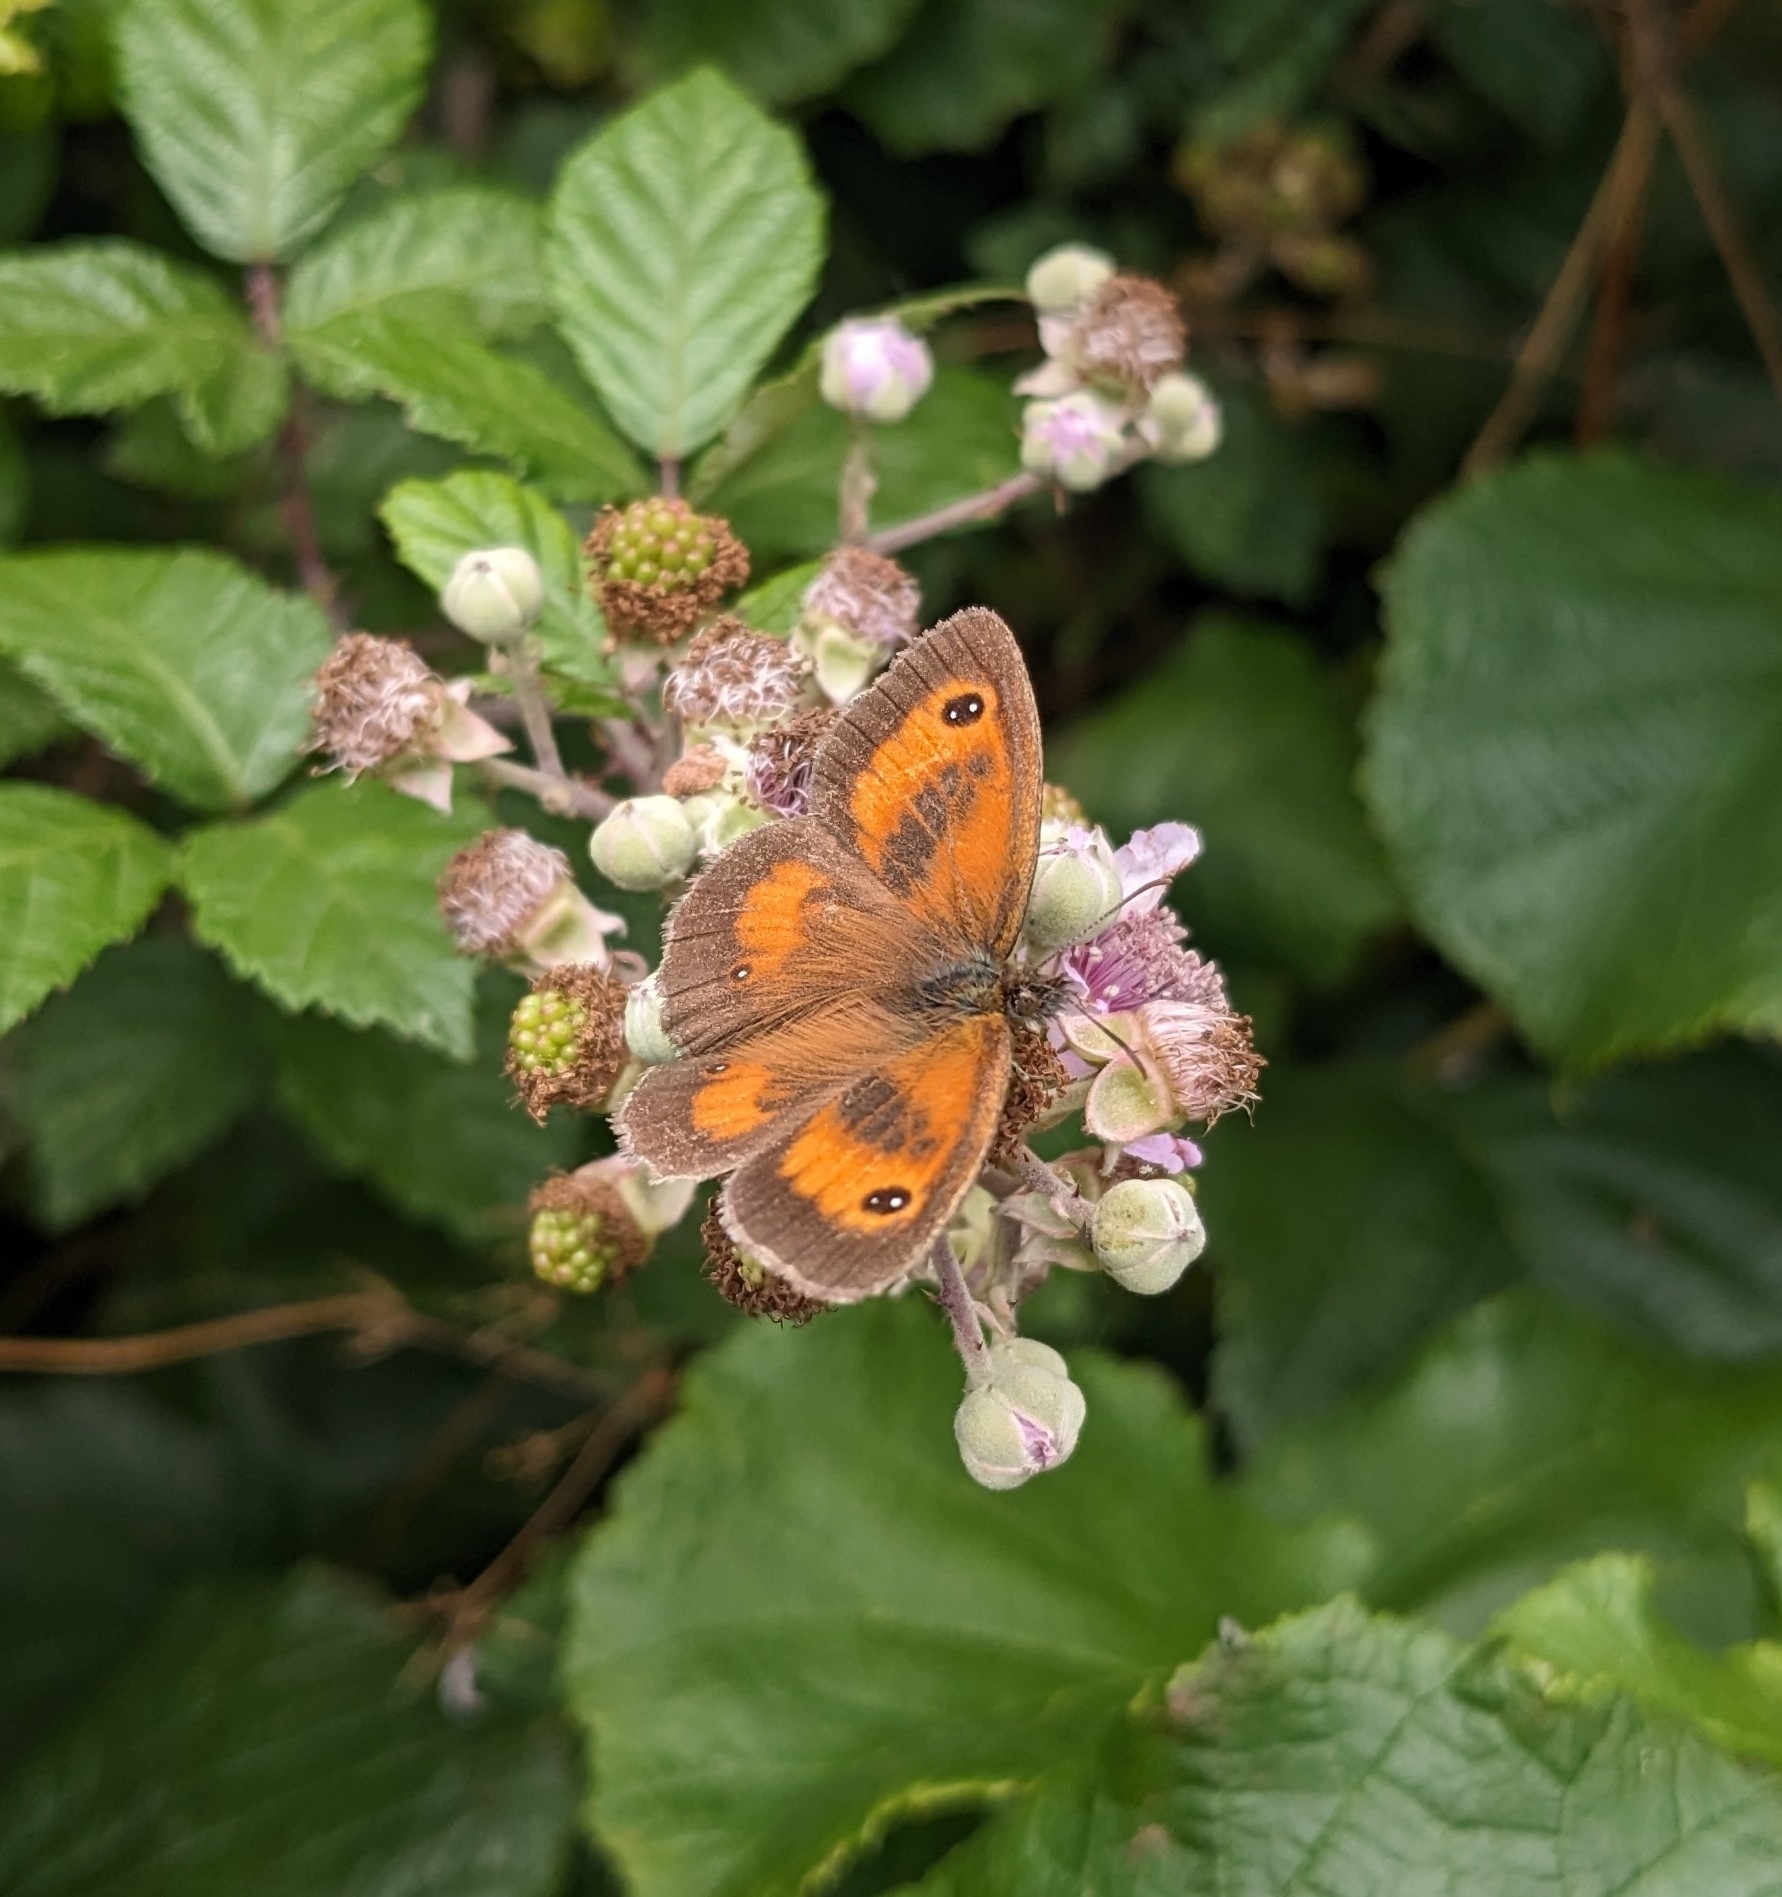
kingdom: Animalia
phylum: Arthropoda
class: Insecta
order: Lepidoptera
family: Nymphalidae
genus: Pyronia
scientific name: Pyronia tithonus
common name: Gatekeeper
